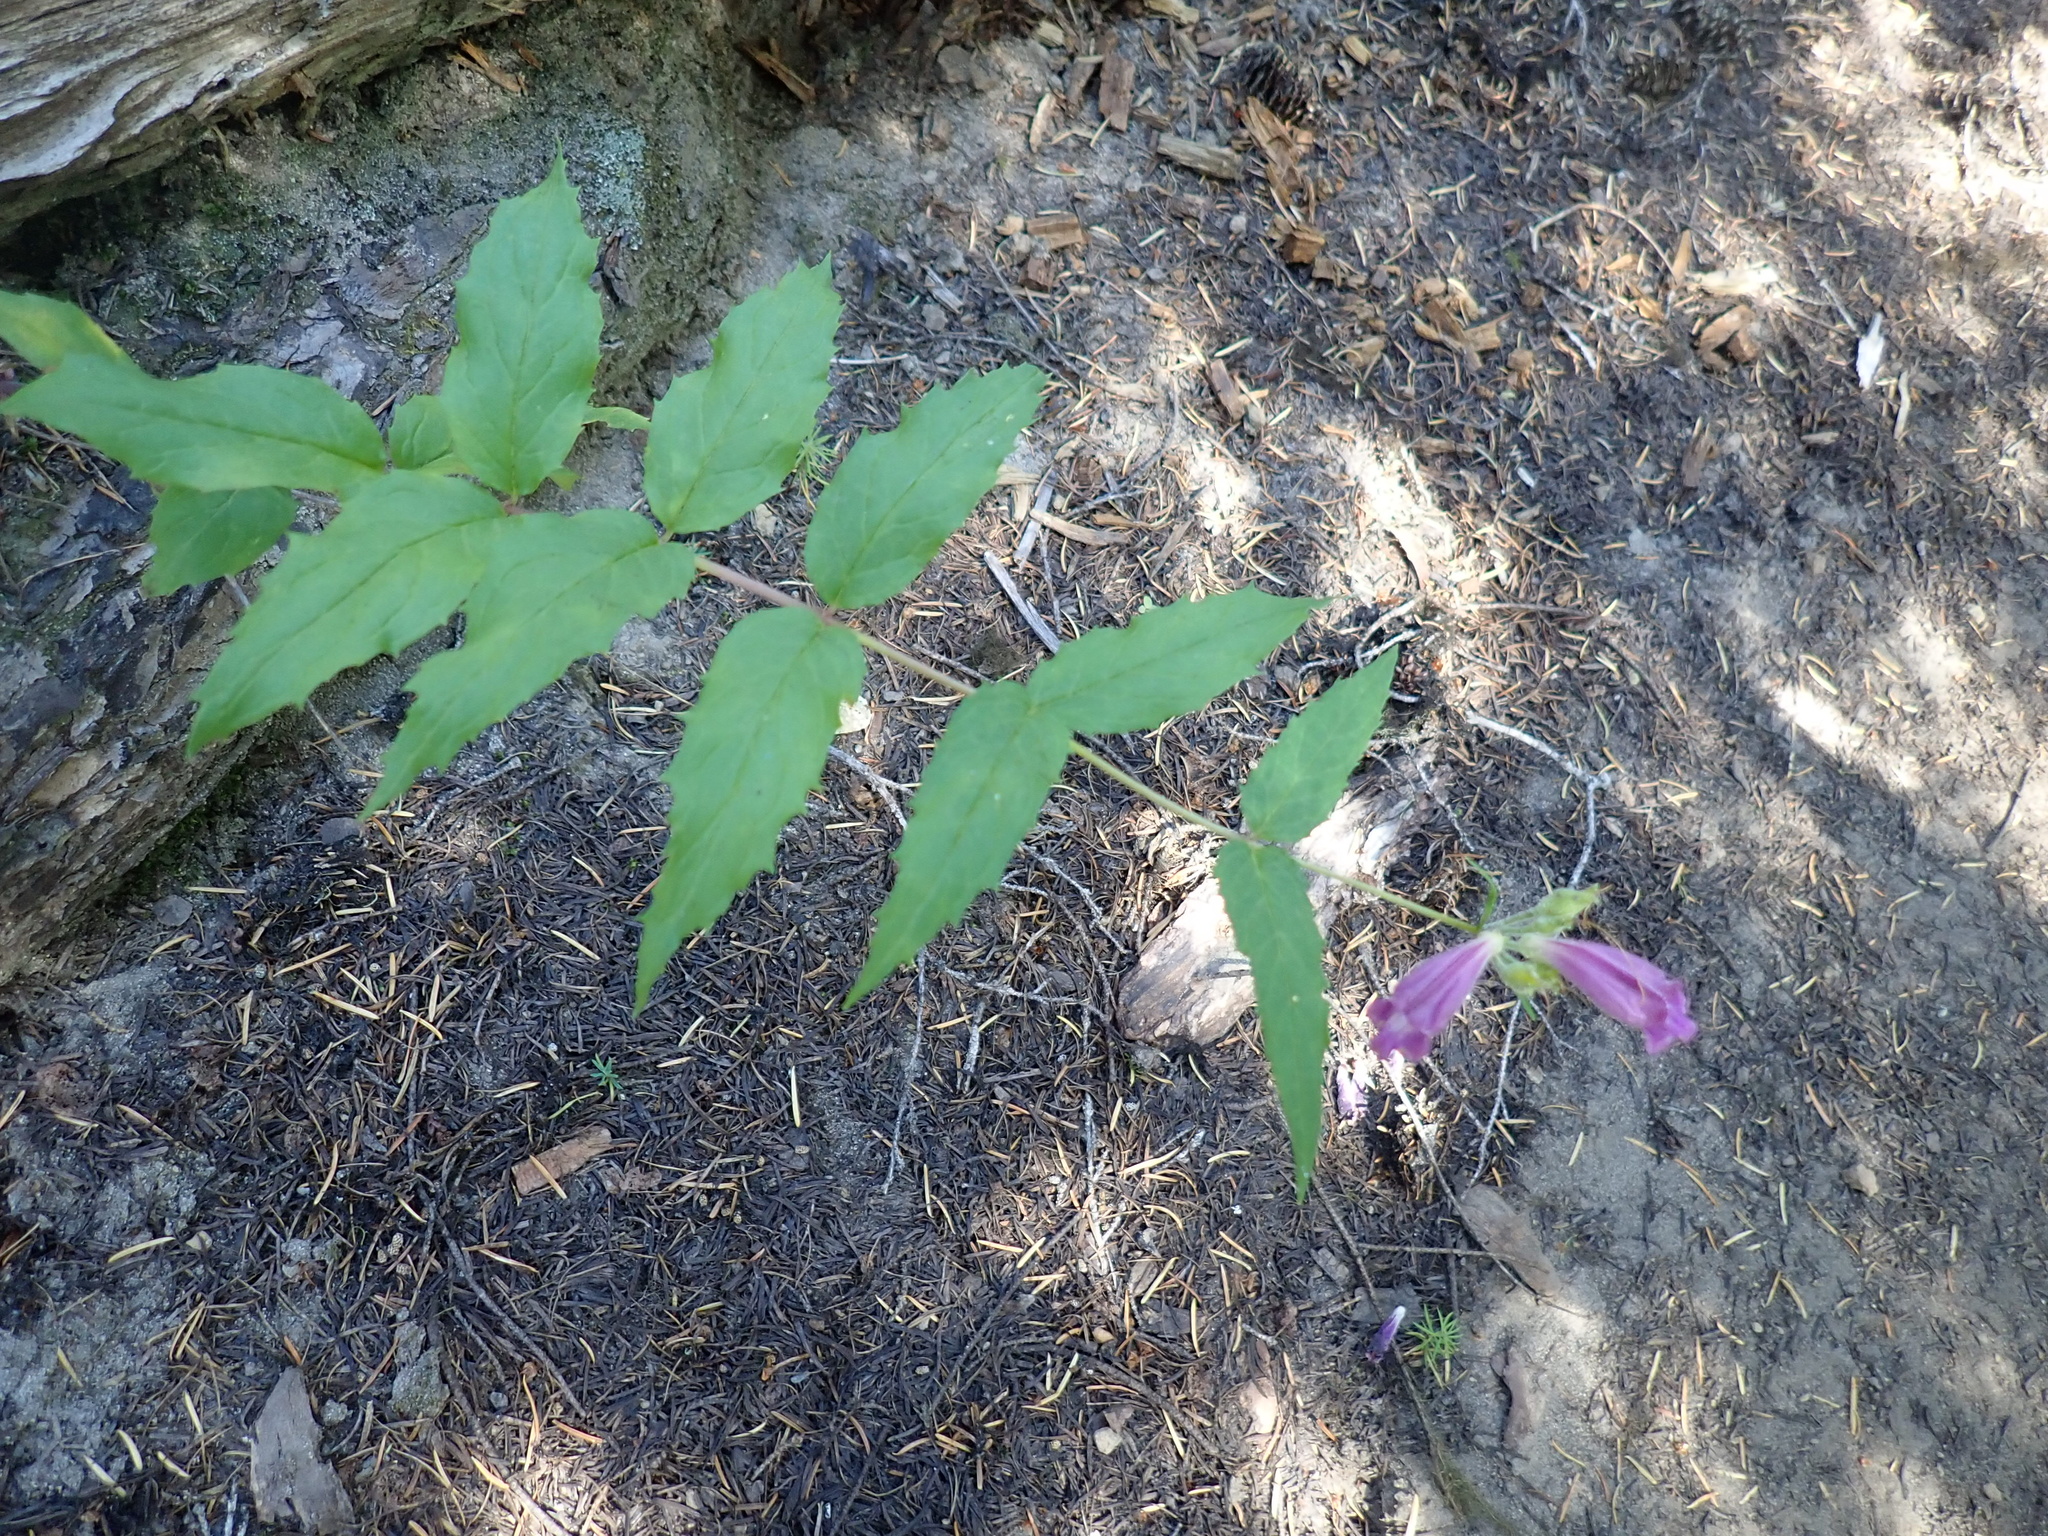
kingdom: Plantae
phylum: Tracheophyta
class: Magnoliopsida
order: Lamiales
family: Plantaginaceae
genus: Nothochelone
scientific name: Nothochelone nemorosa
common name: Woodland beardtongue
